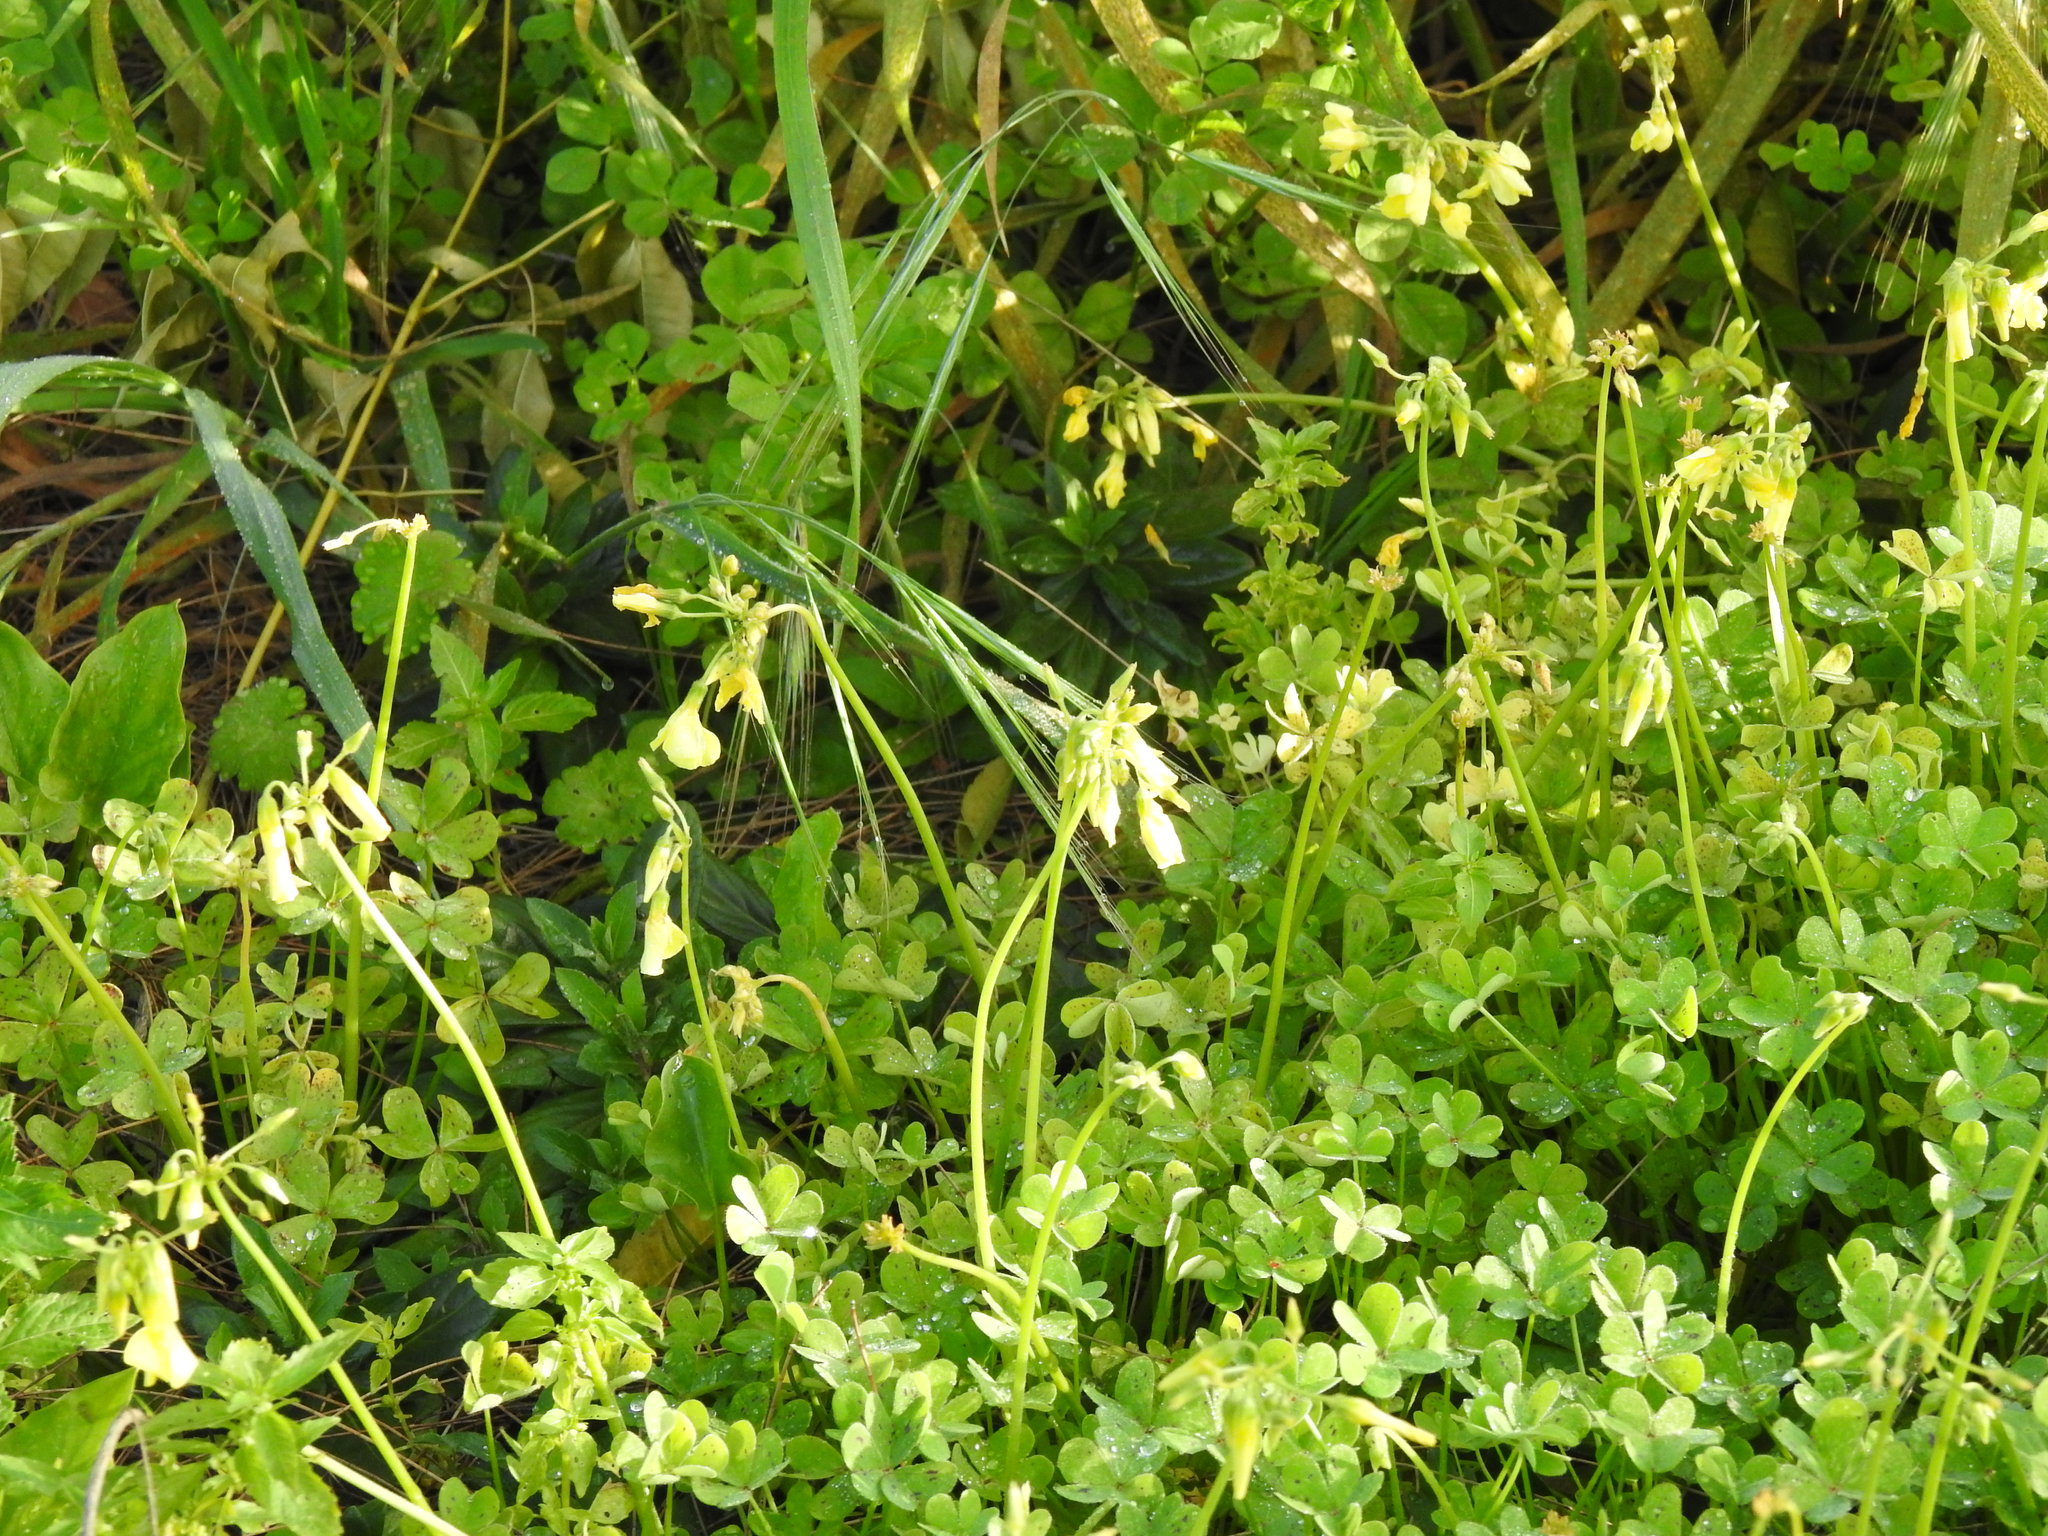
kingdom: Plantae
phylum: Tracheophyta
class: Magnoliopsida
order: Oxalidales
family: Oxalidaceae
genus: Oxalis
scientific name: Oxalis pes-caprae
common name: Bermuda-buttercup
